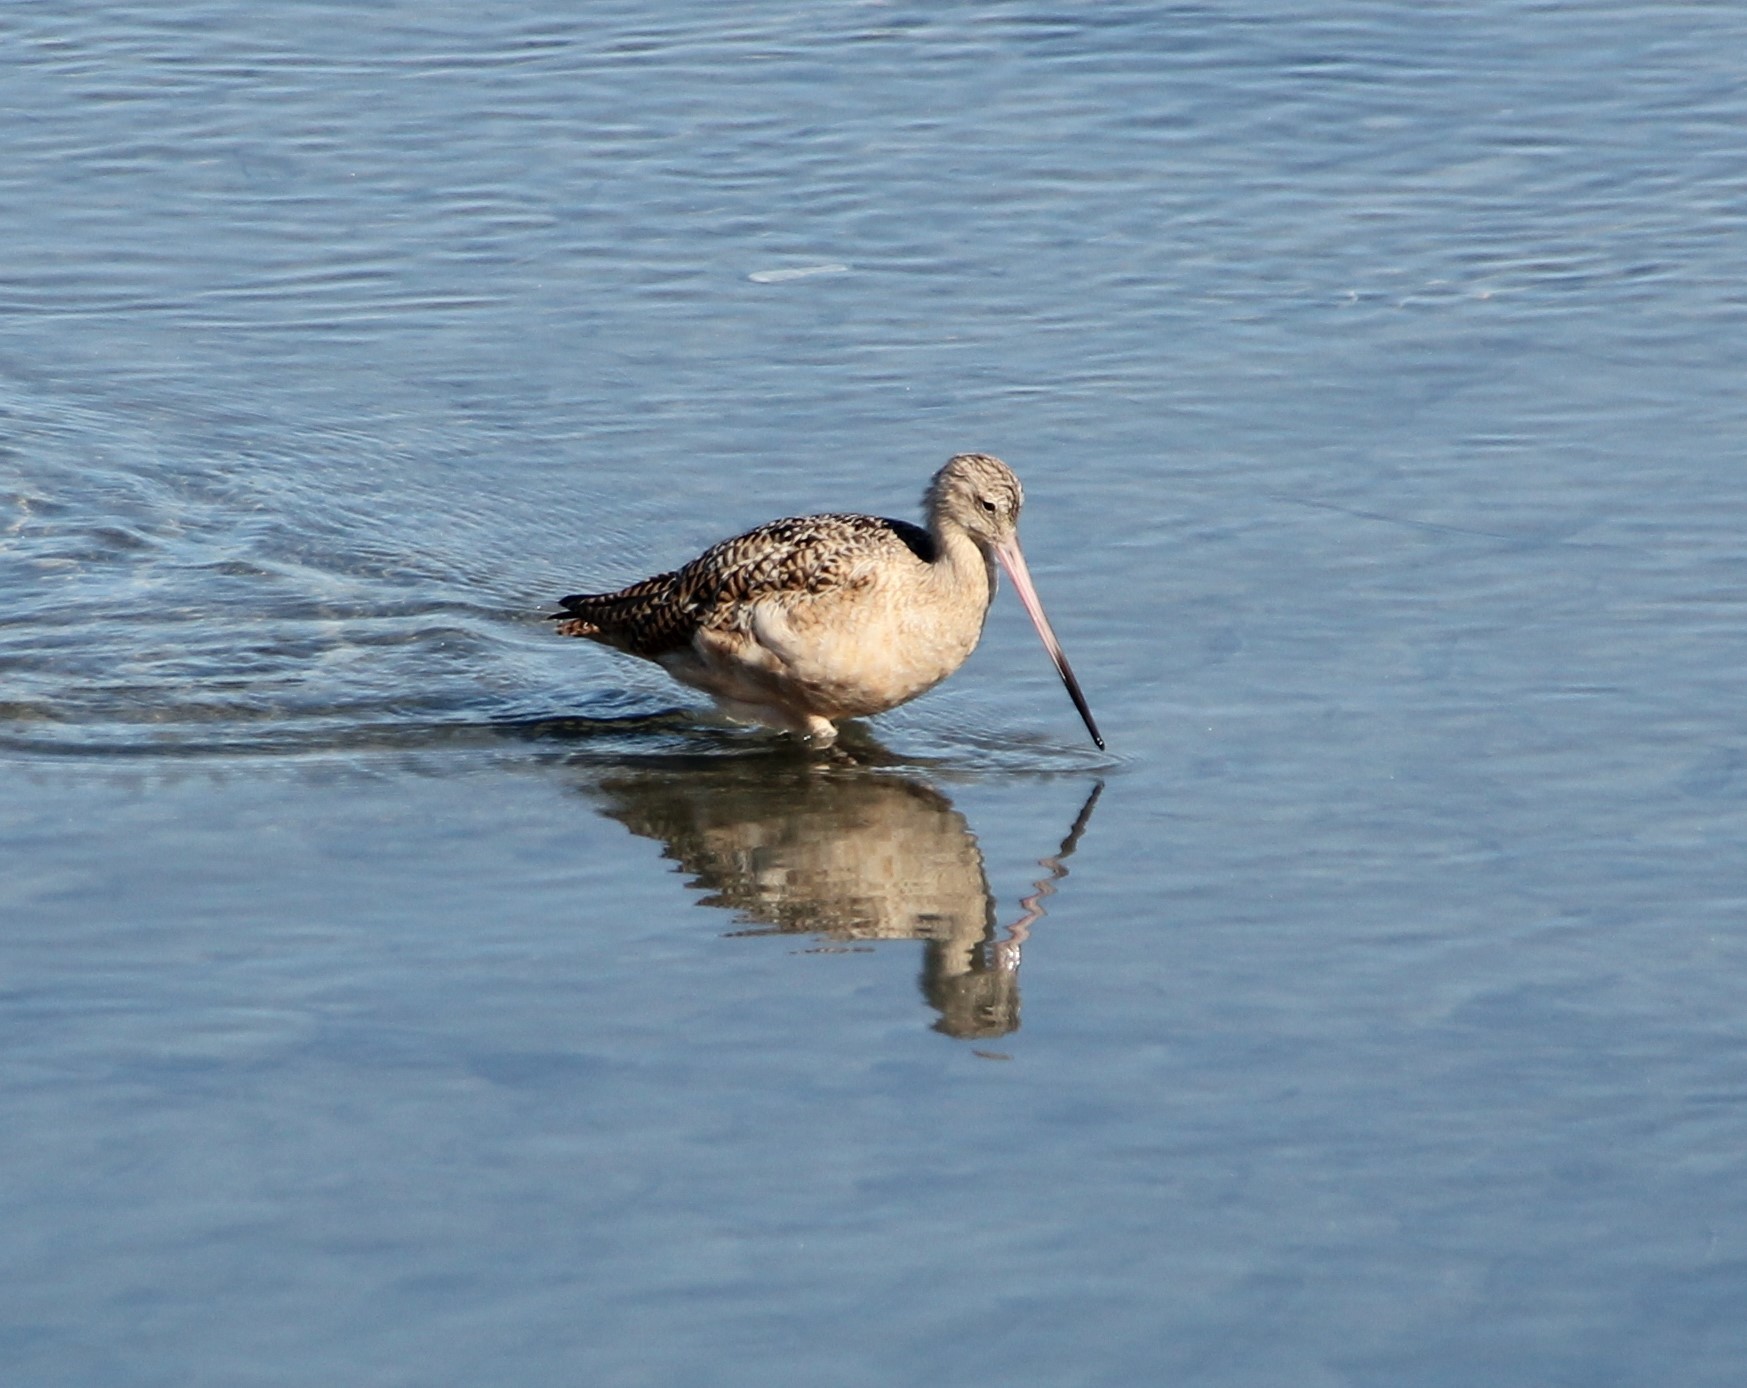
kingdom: Animalia
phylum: Chordata
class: Aves
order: Charadriiformes
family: Scolopacidae
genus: Limosa
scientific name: Limosa fedoa
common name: Marbled godwit
